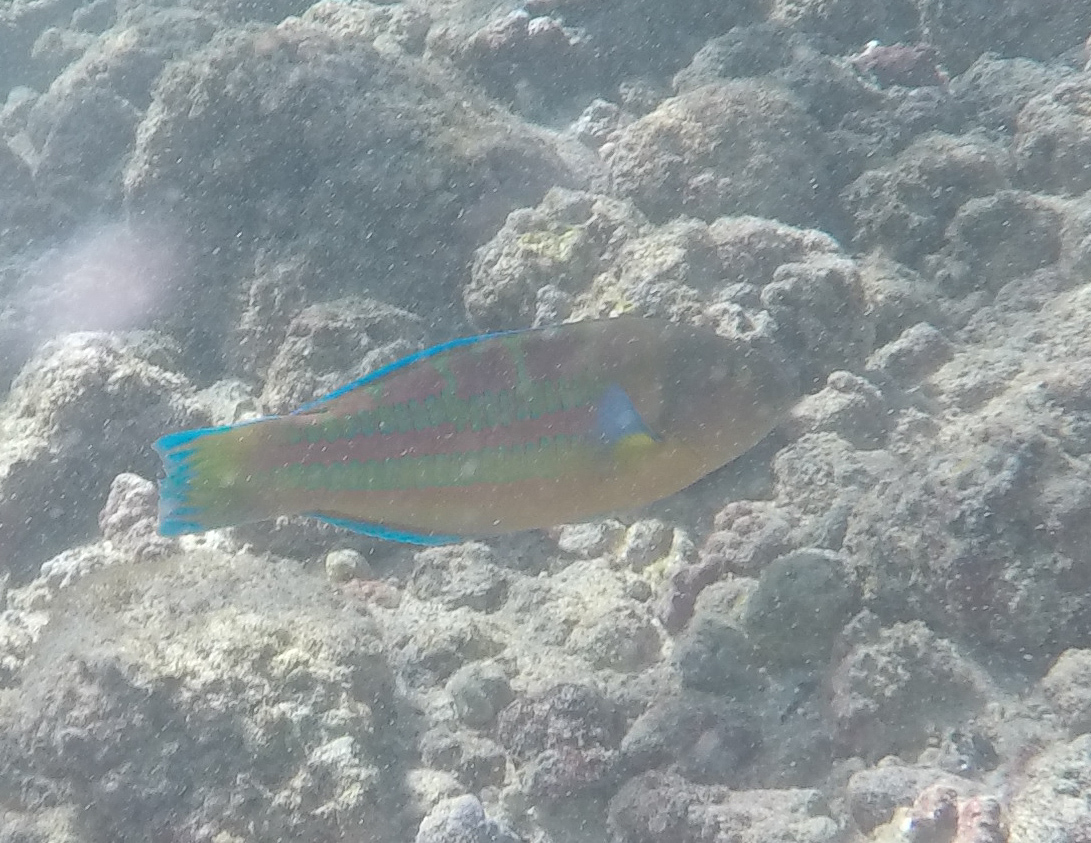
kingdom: Animalia
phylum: Chordata
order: Perciformes
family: Labridae
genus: Thalassoma
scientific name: Thalassoma trilobatum
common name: Christmas wrasse
